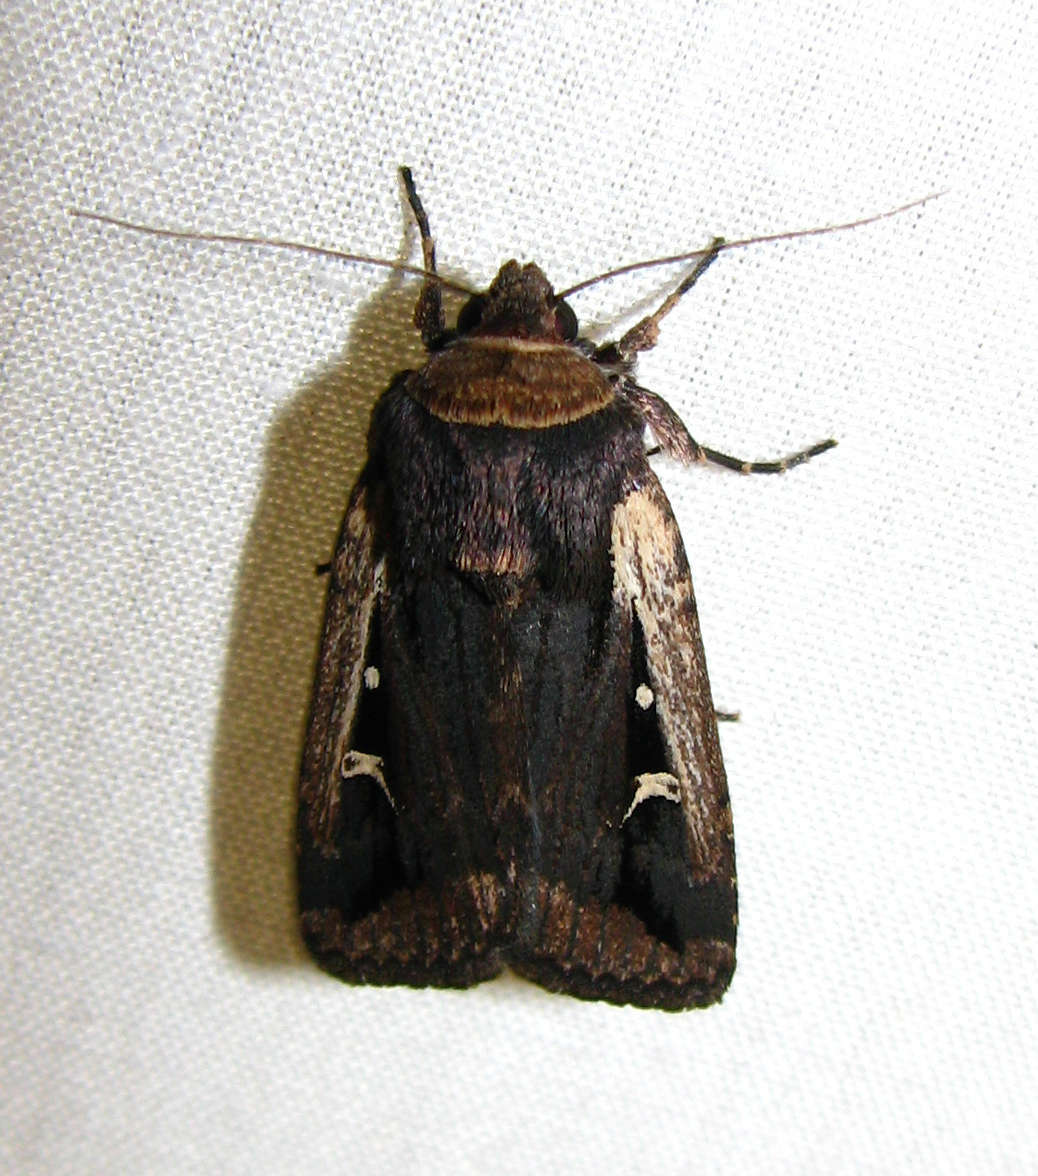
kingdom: Animalia
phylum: Arthropoda
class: Insecta
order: Lepidoptera
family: Noctuidae
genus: Proteuxoa
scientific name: Proteuxoa tortisigna
